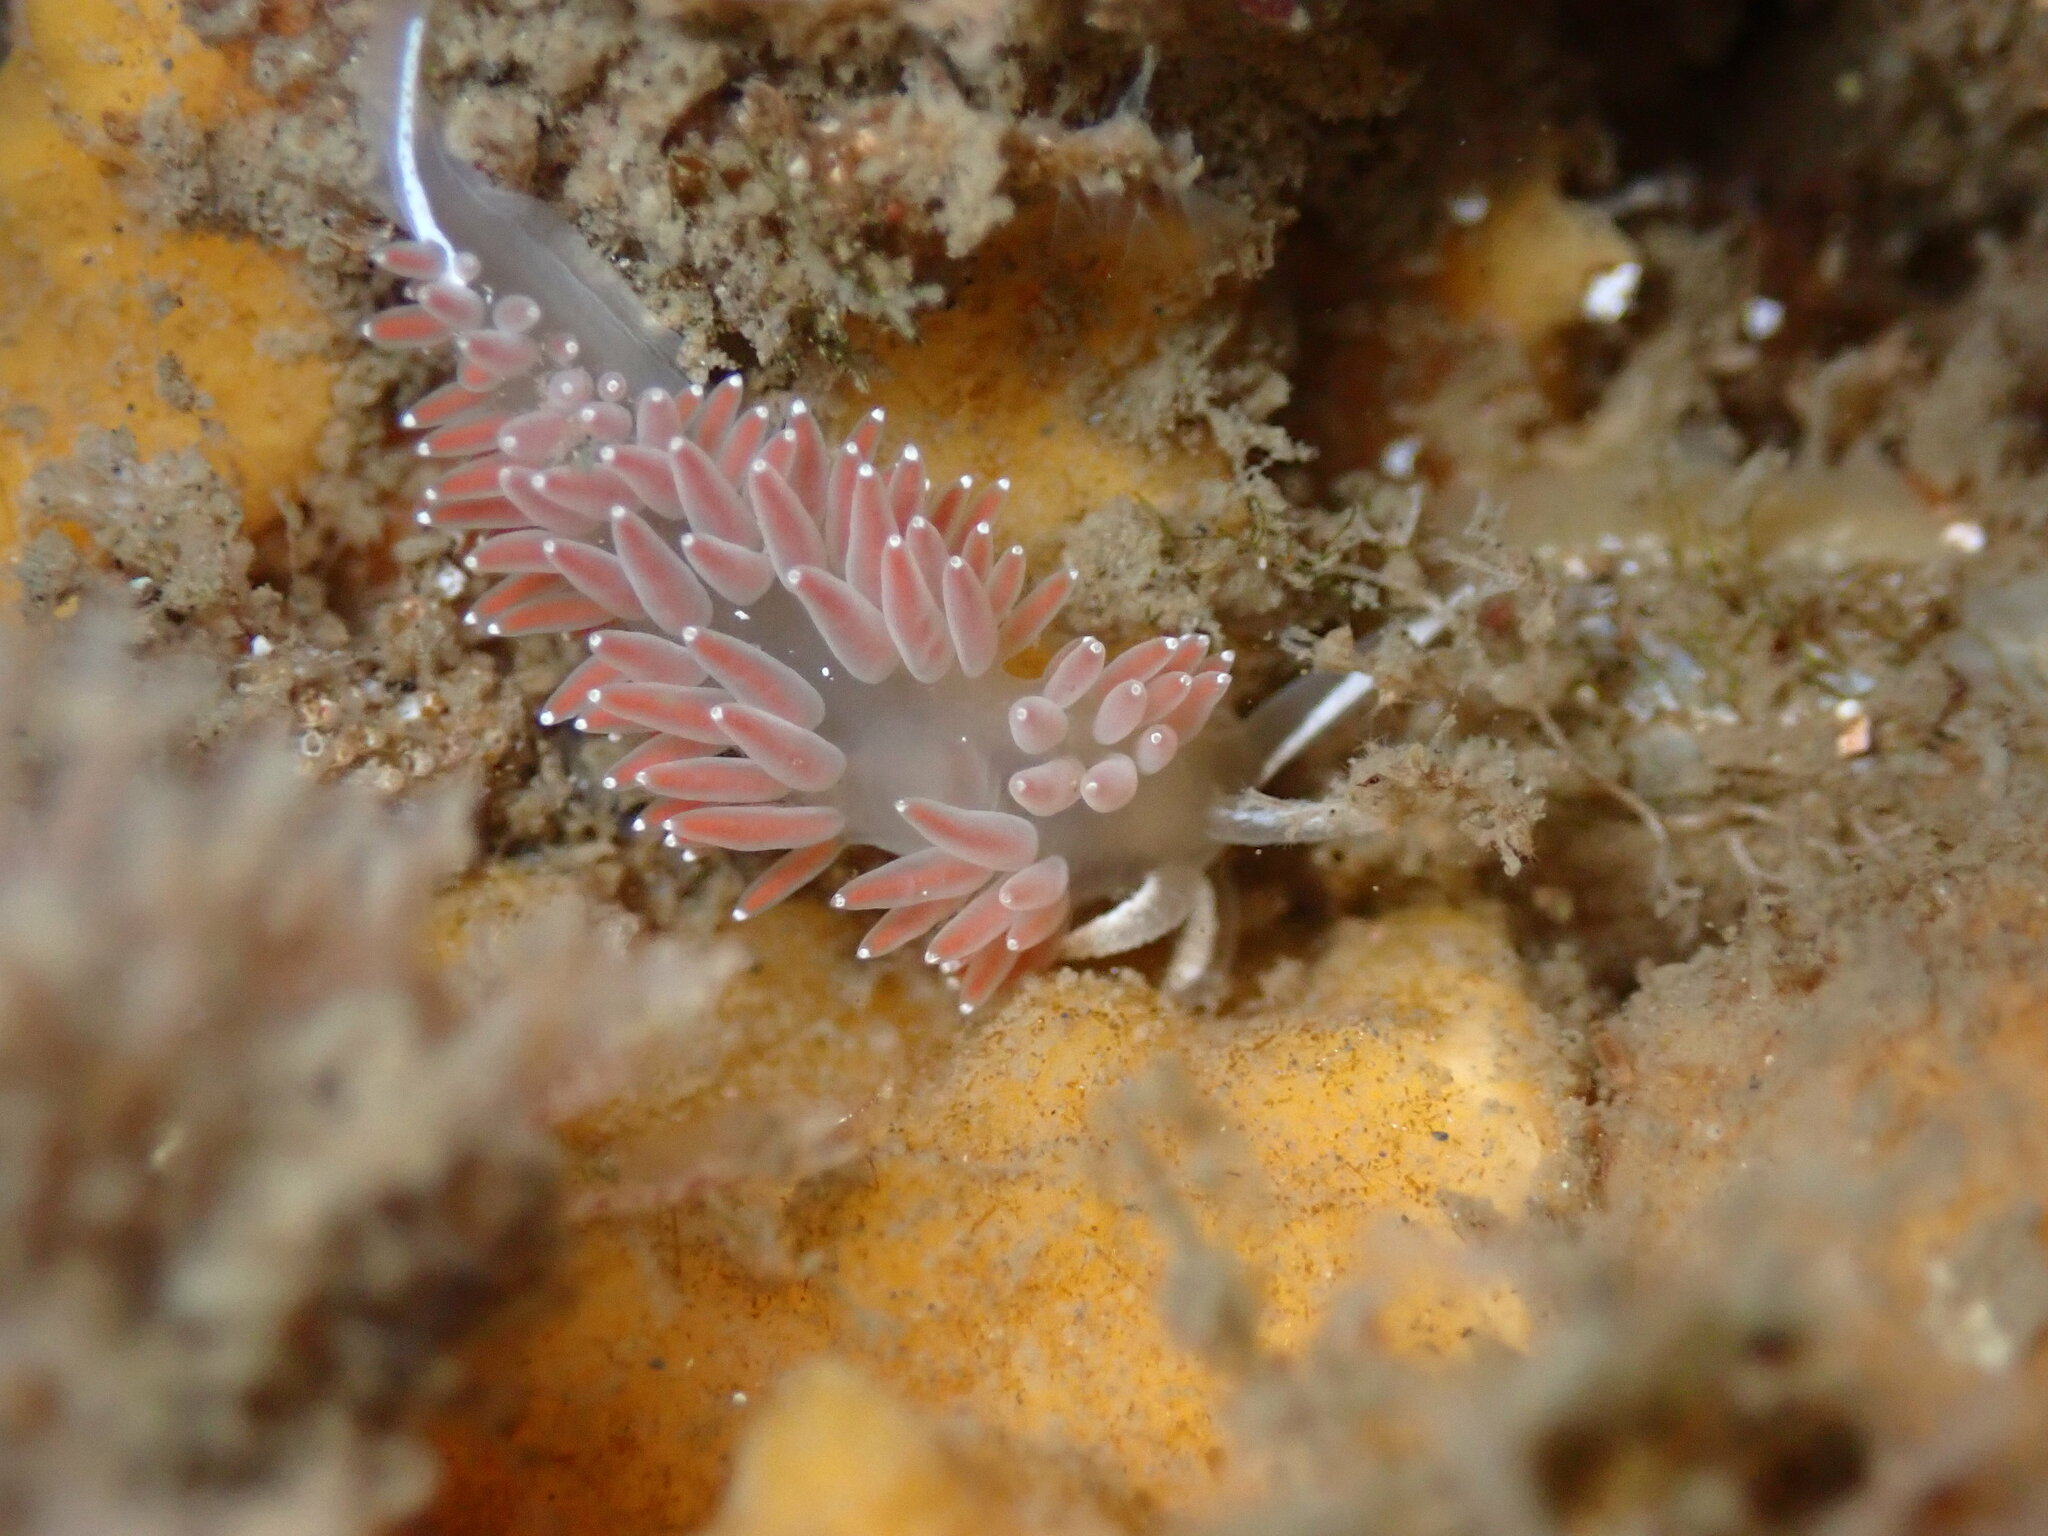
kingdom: Animalia
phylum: Mollusca
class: Gastropoda
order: Nudibranchia
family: Coryphellidae
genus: Coryphella
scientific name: Coryphella verrucosa
